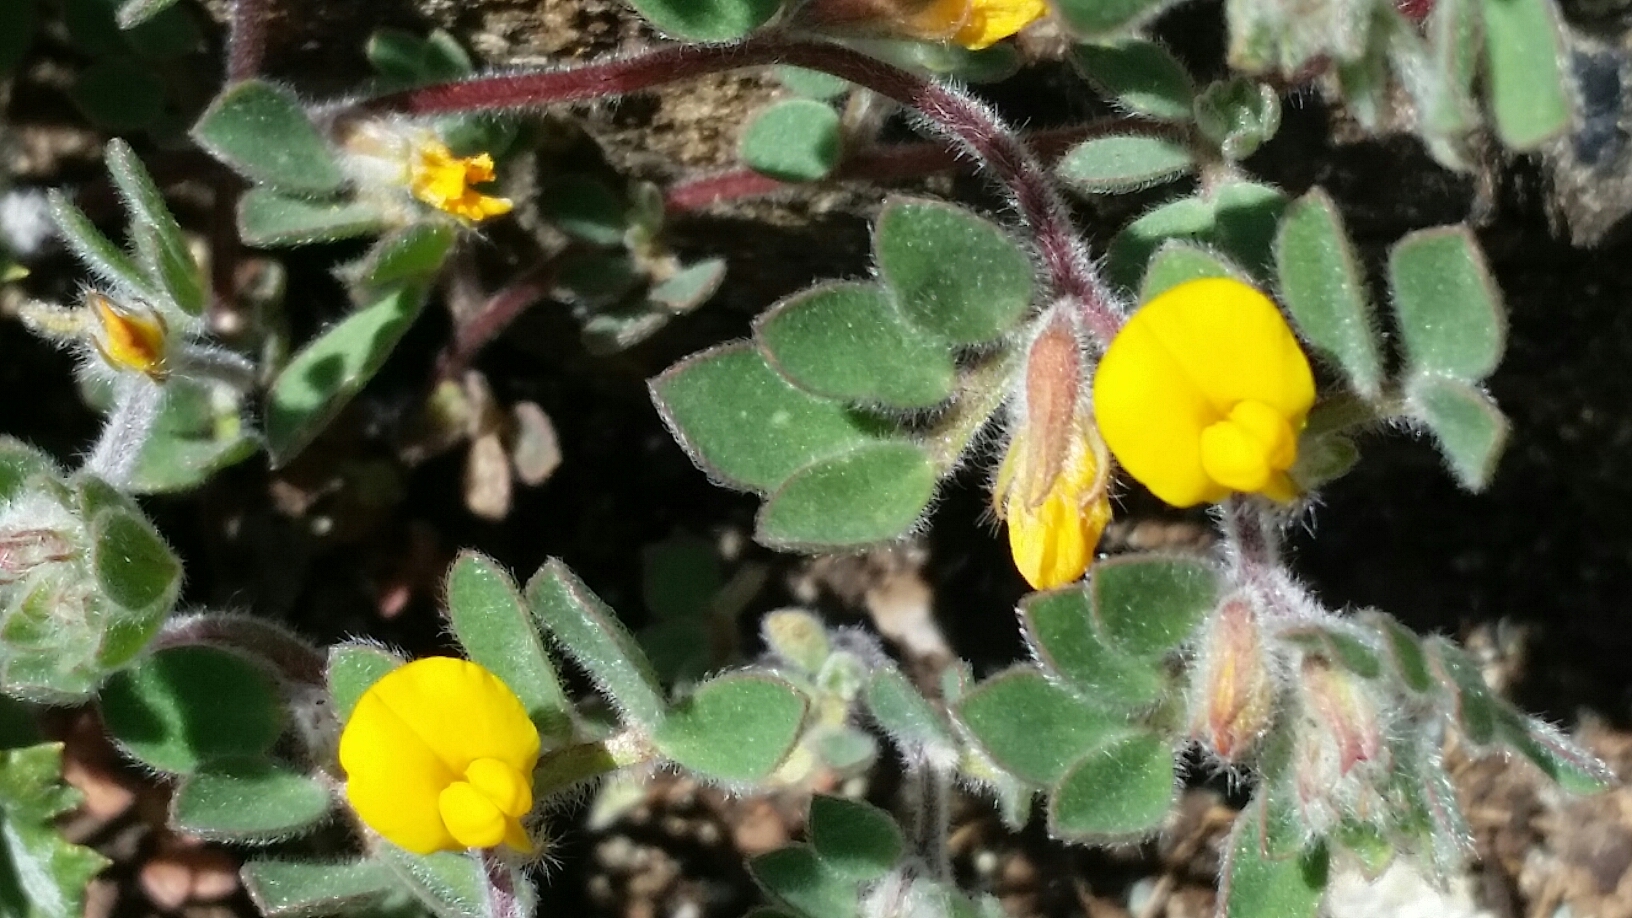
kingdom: Plantae
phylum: Tracheophyta
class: Magnoliopsida
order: Fabales
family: Fabaceae
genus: Acmispon
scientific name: Acmispon brachycarpus
